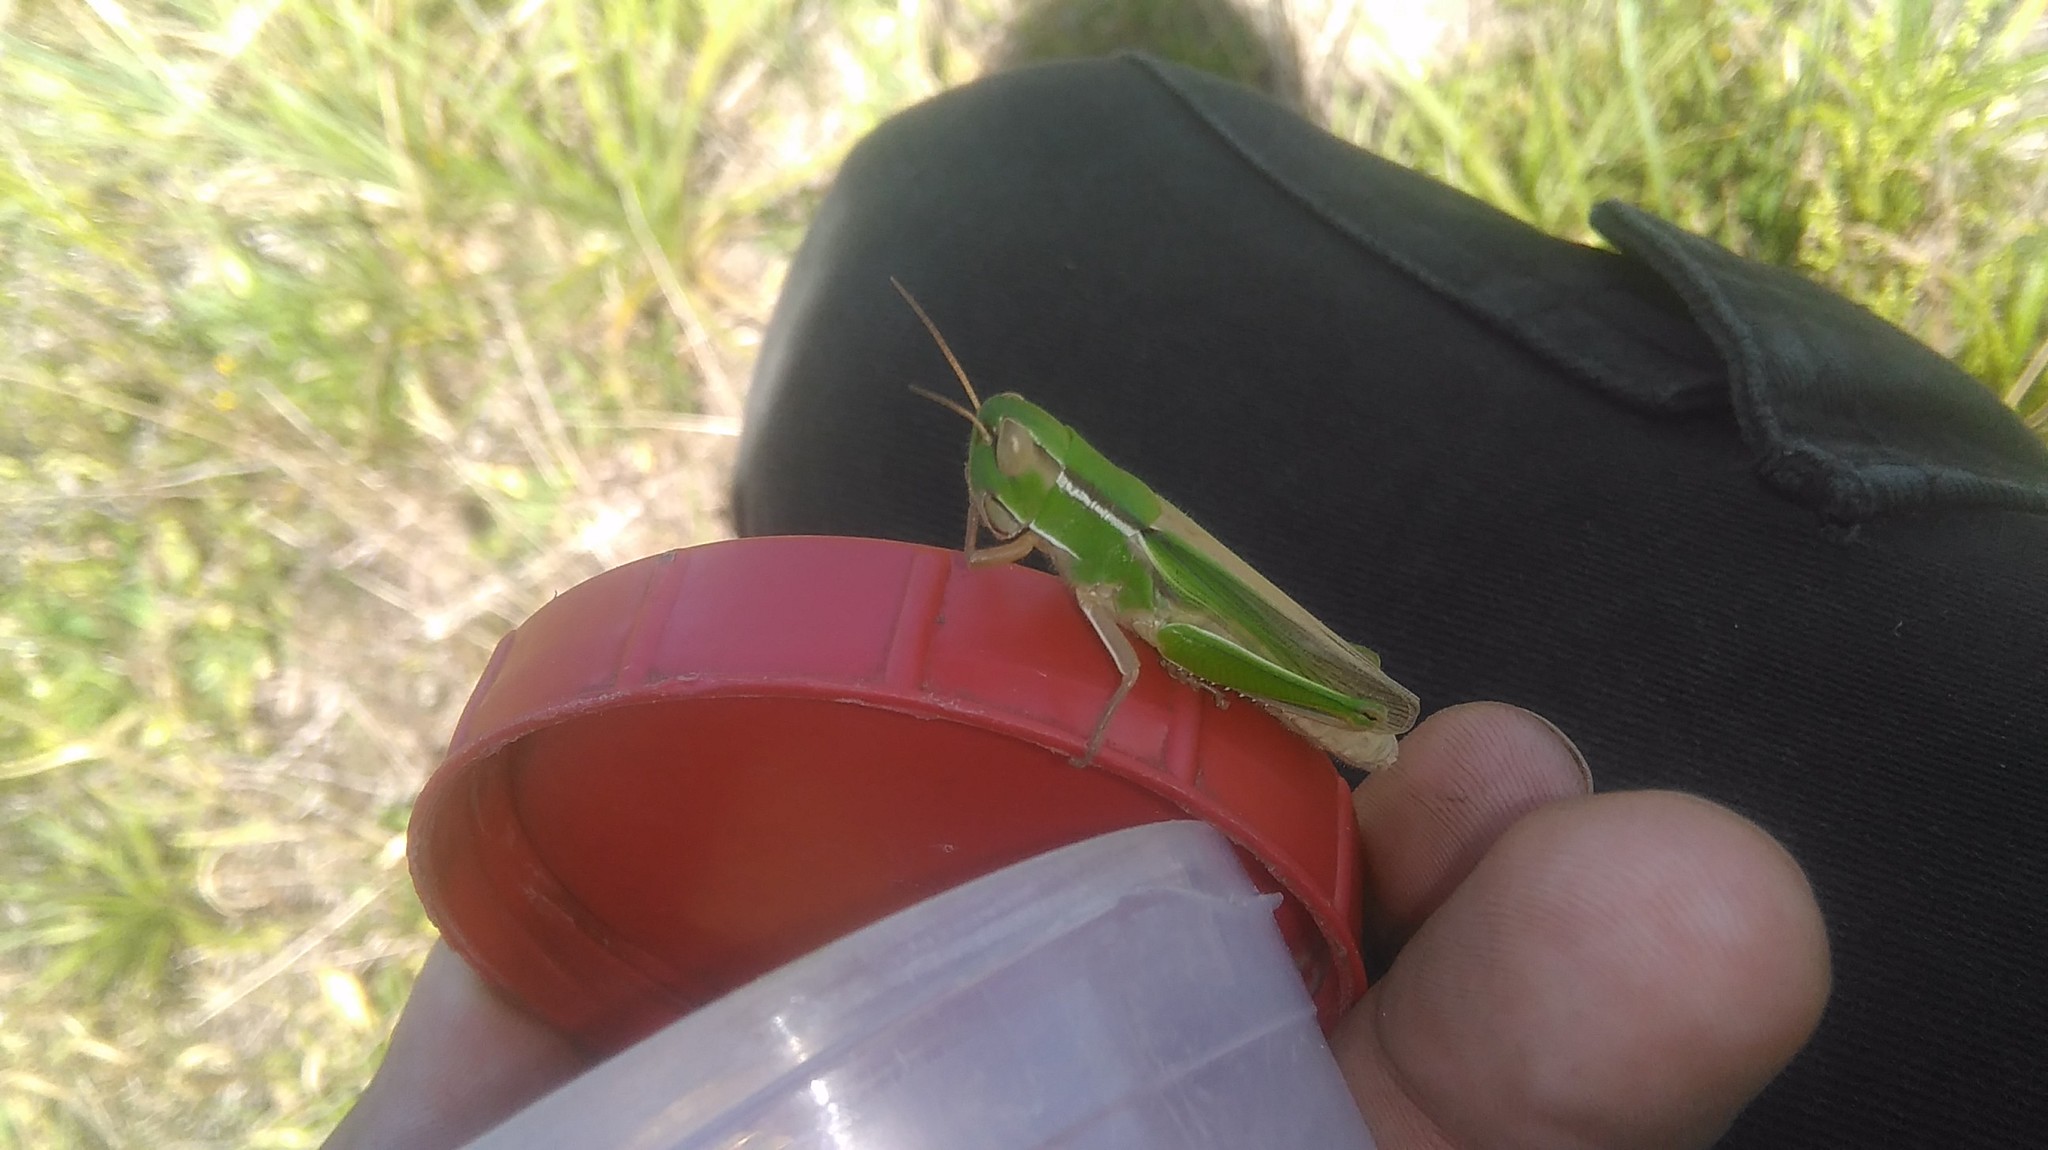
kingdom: Animalia
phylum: Arthropoda
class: Insecta
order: Orthoptera
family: Acrididae
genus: Aleuas
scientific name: Aleuas lineatus
